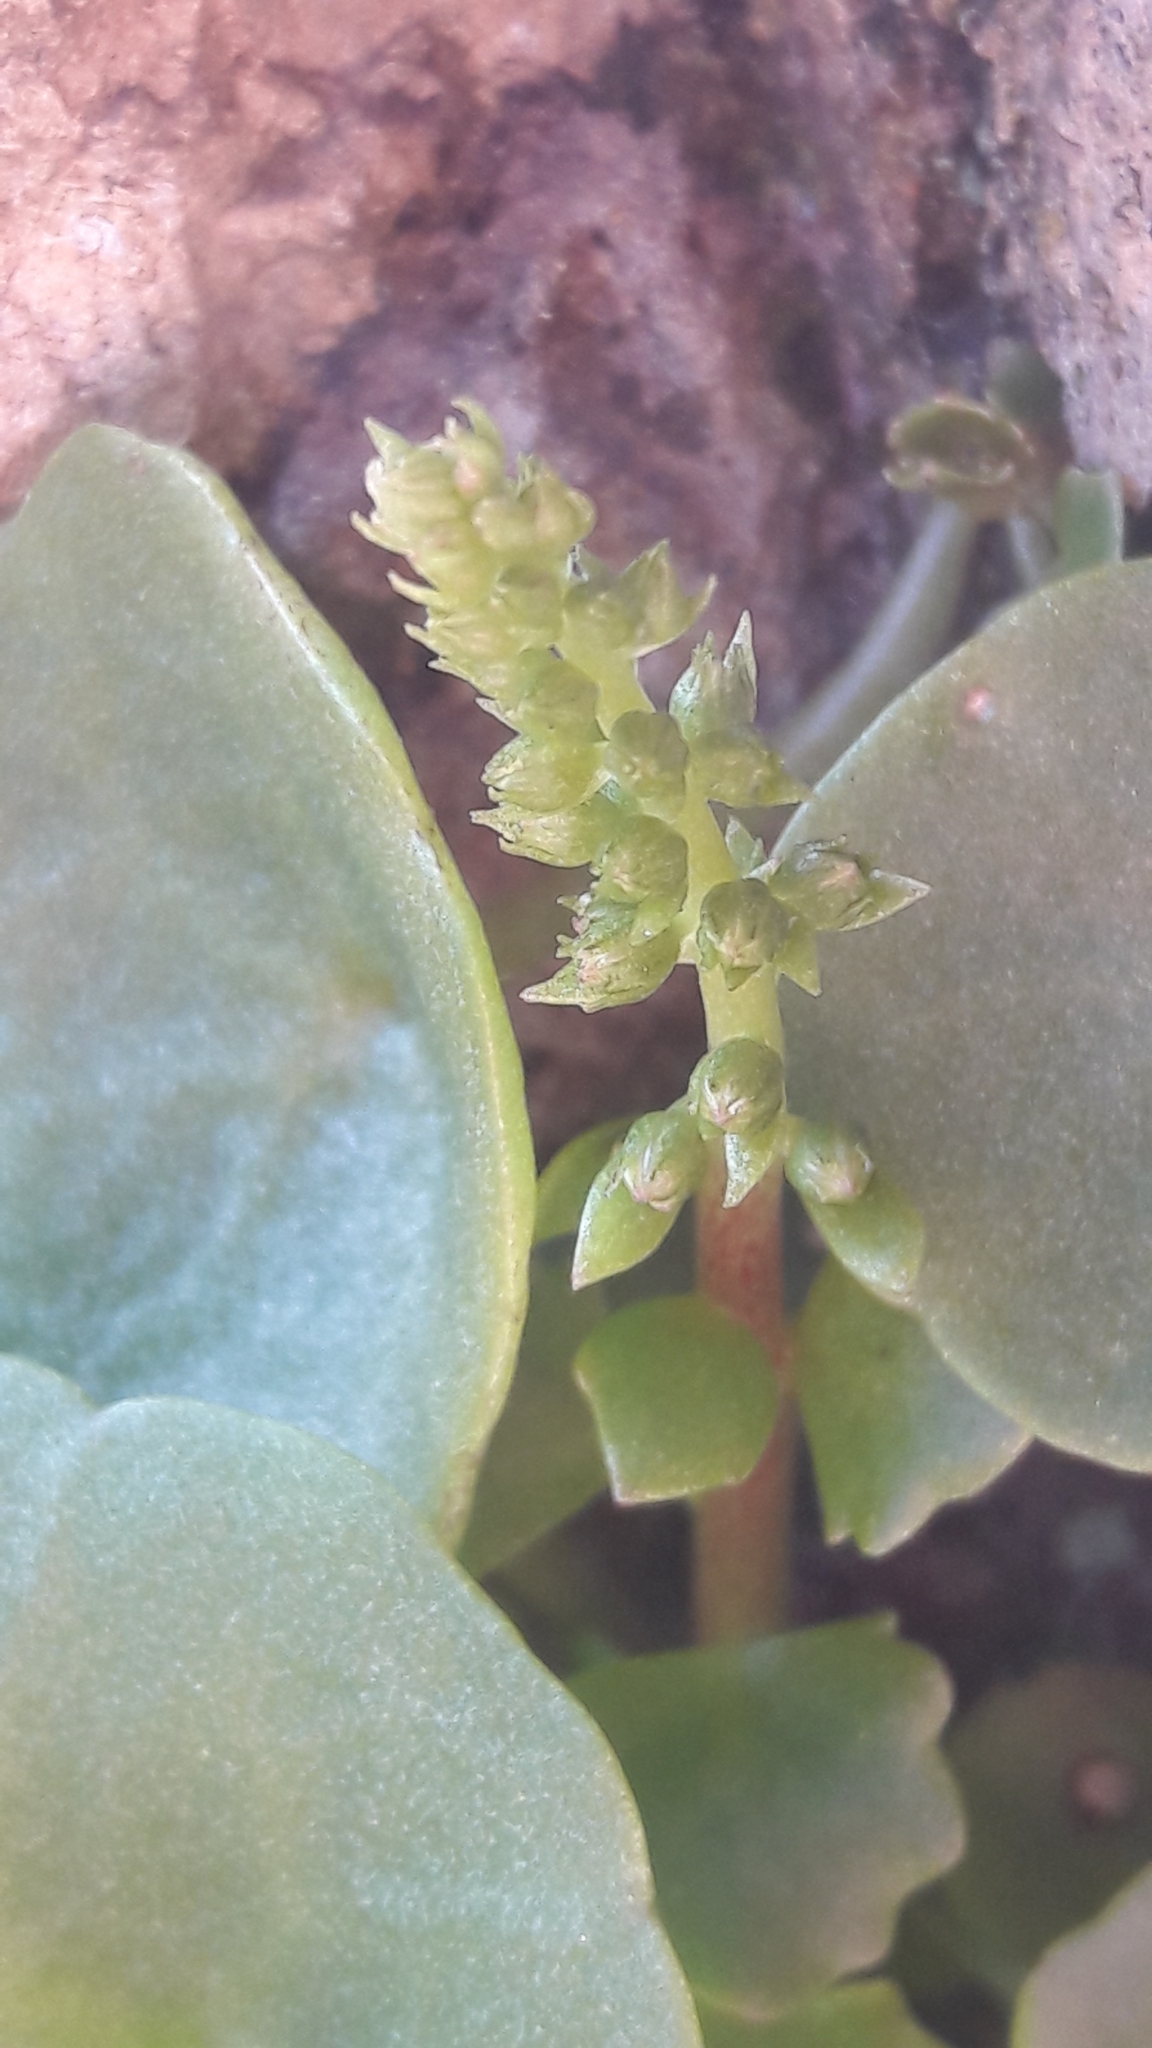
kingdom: Plantae
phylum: Tracheophyta
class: Magnoliopsida
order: Saxifragales
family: Crassulaceae
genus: Umbilicus
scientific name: Umbilicus rupestris
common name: Navelwort
